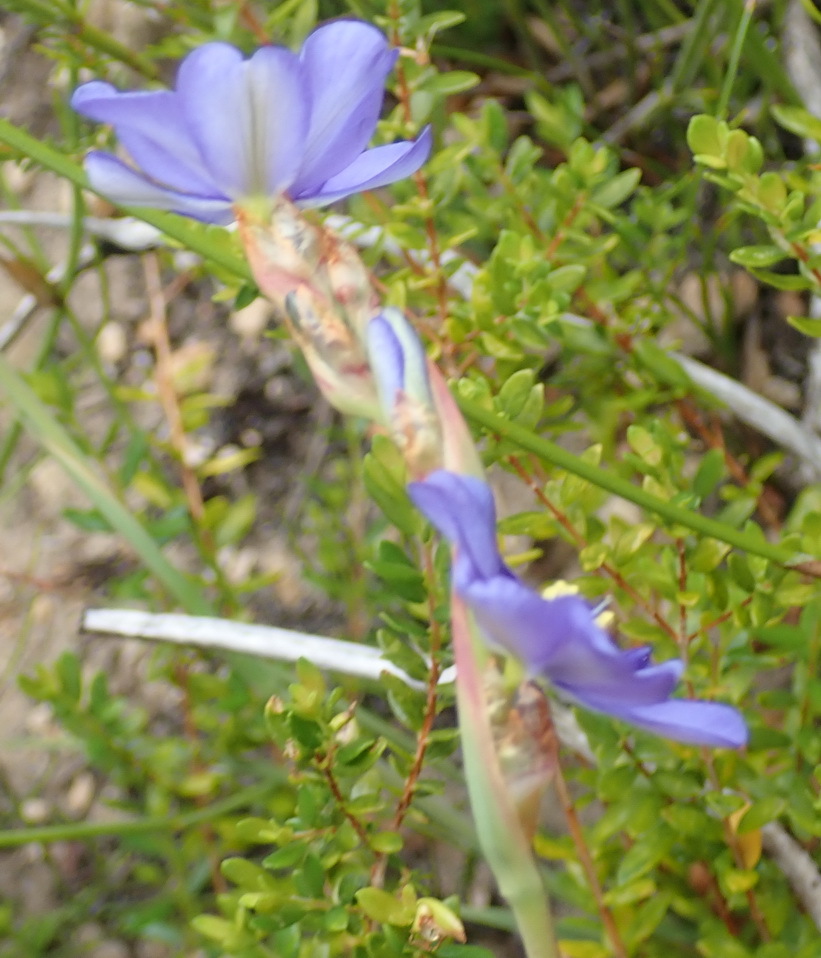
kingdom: Plantae
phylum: Tracheophyta
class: Liliopsida
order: Asparagales
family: Iridaceae
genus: Aristea
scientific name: Aristea racemosa
